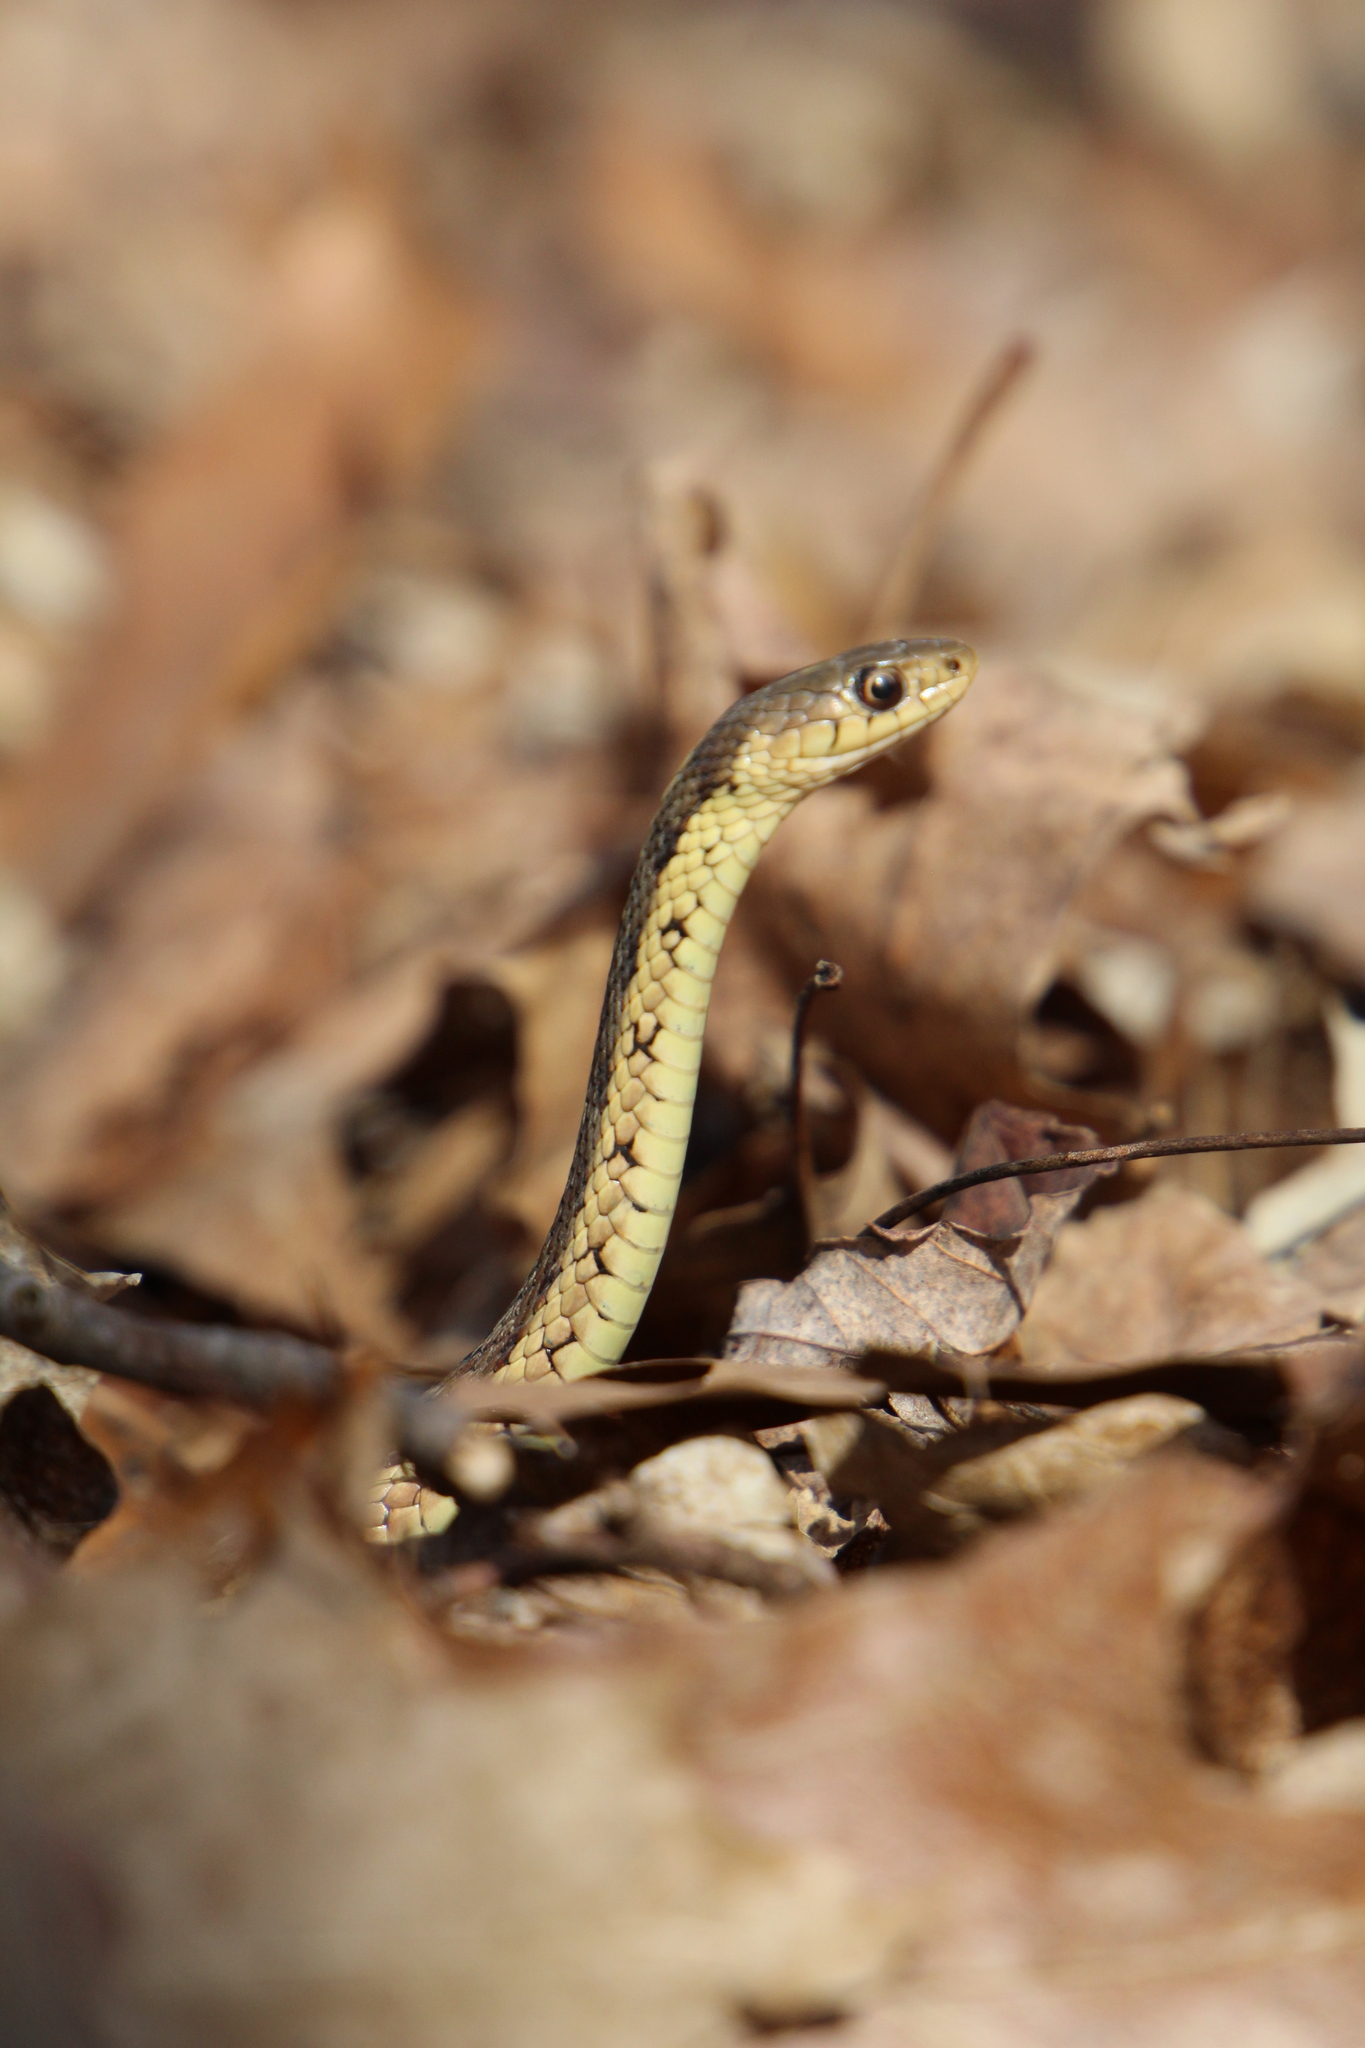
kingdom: Animalia
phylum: Chordata
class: Squamata
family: Colubridae
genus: Thamnophis
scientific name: Thamnophis sirtalis
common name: Common garter snake
